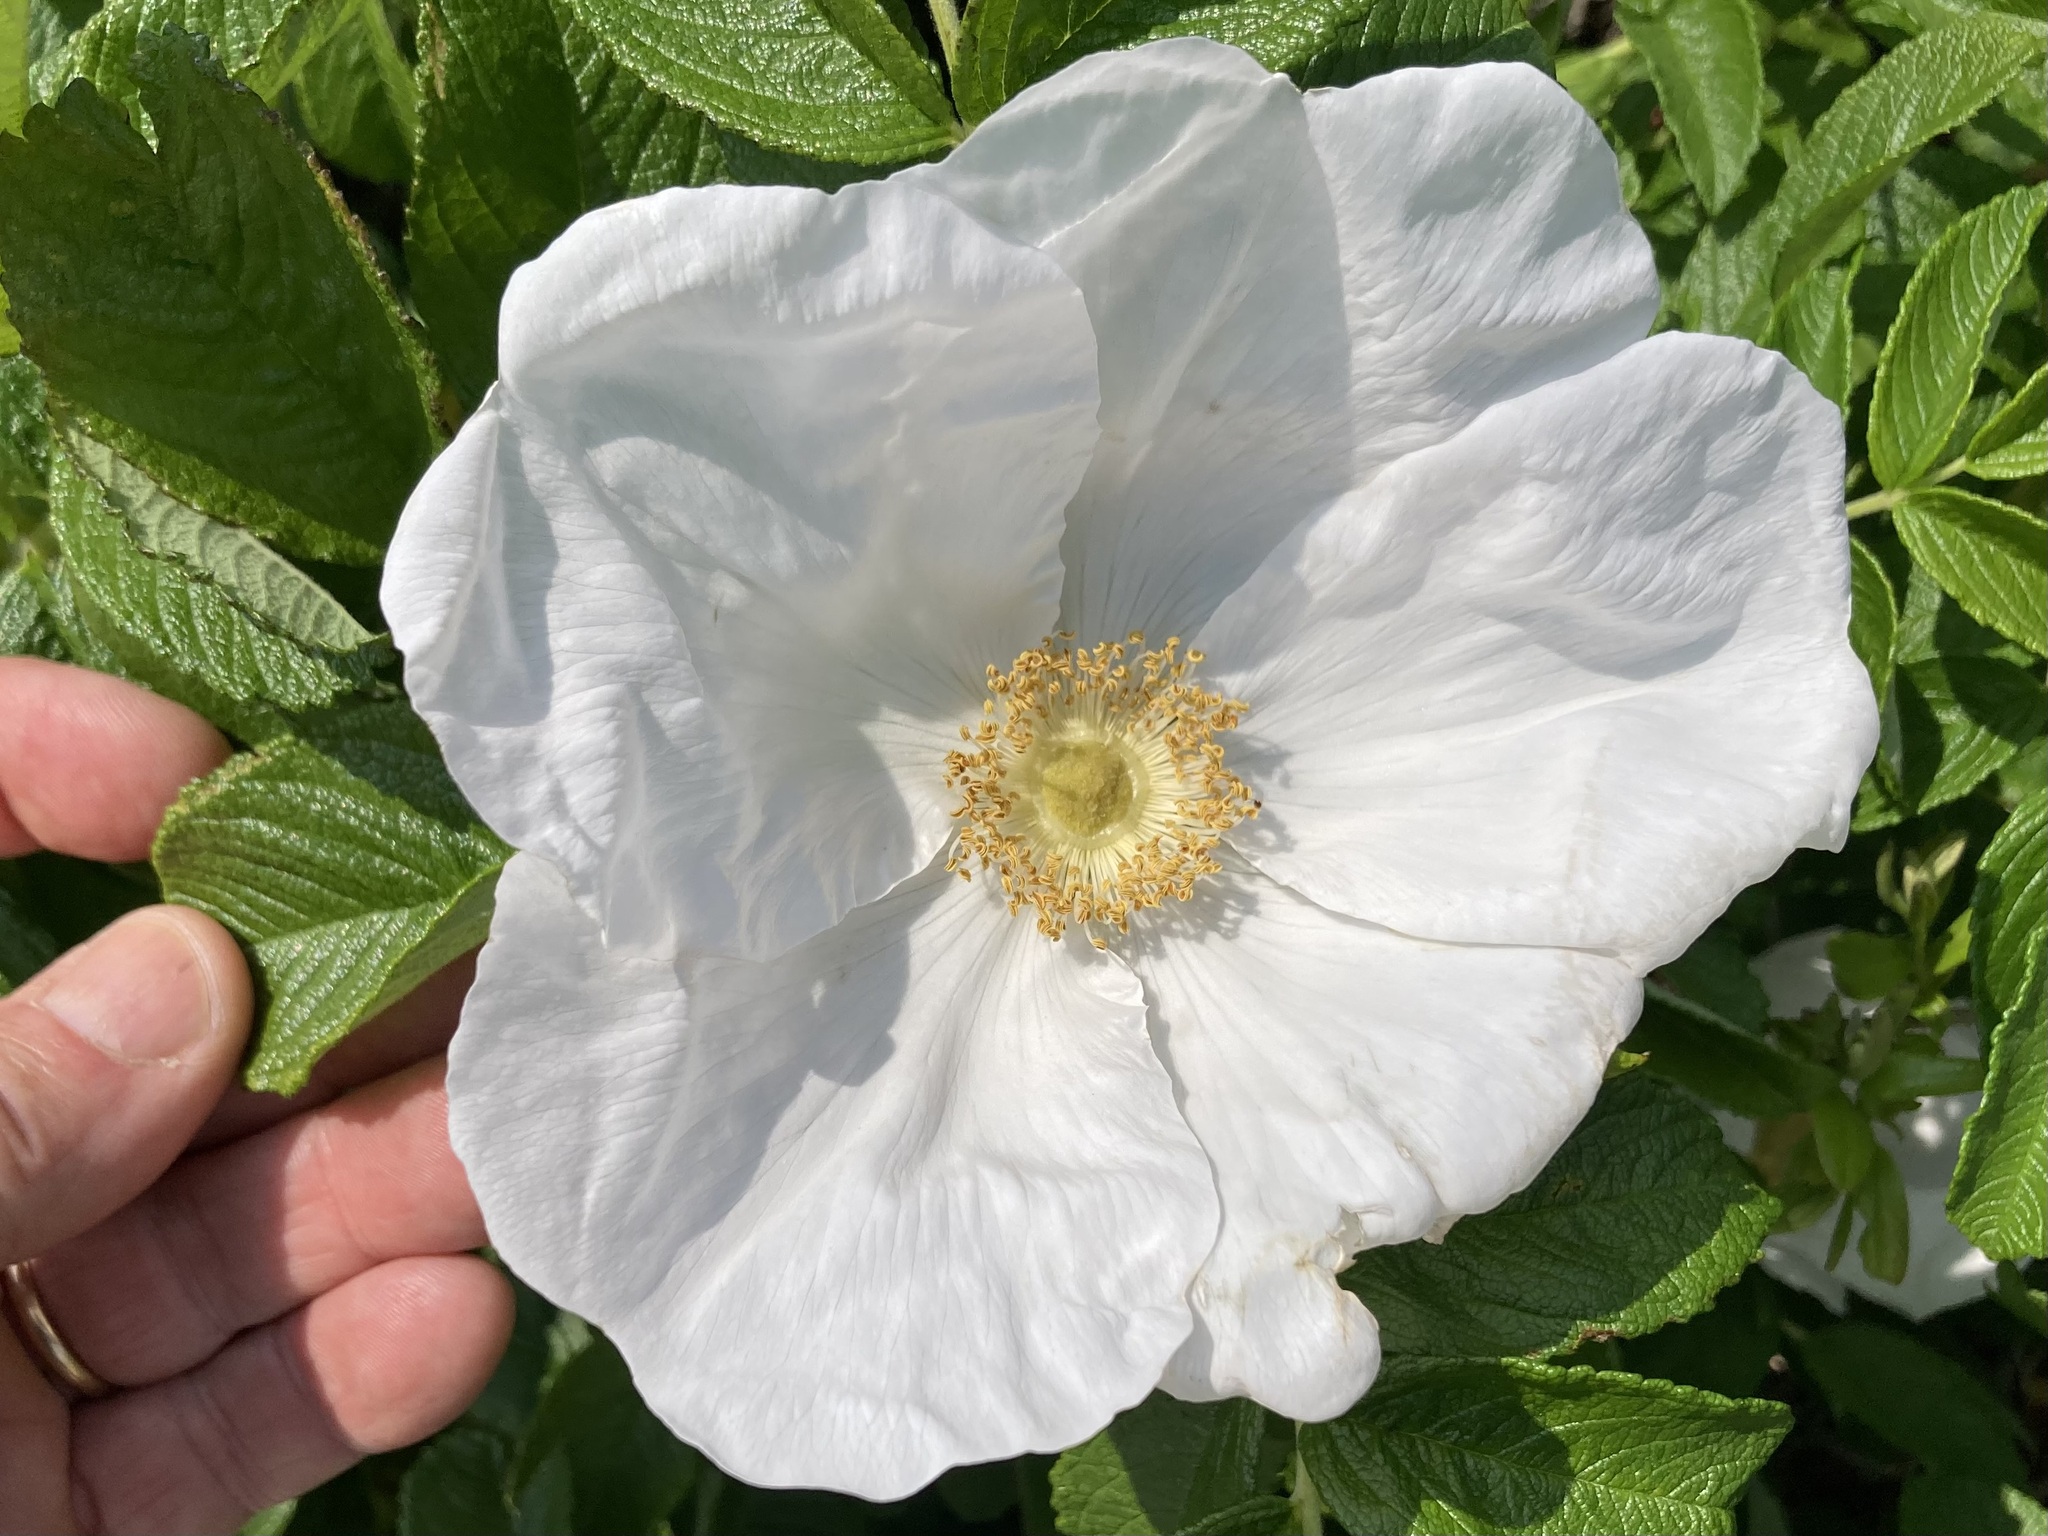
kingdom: Plantae
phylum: Tracheophyta
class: Magnoliopsida
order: Rosales
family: Rosaceae
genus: Rosa
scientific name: Rosa rugosa
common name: Japanese rose
